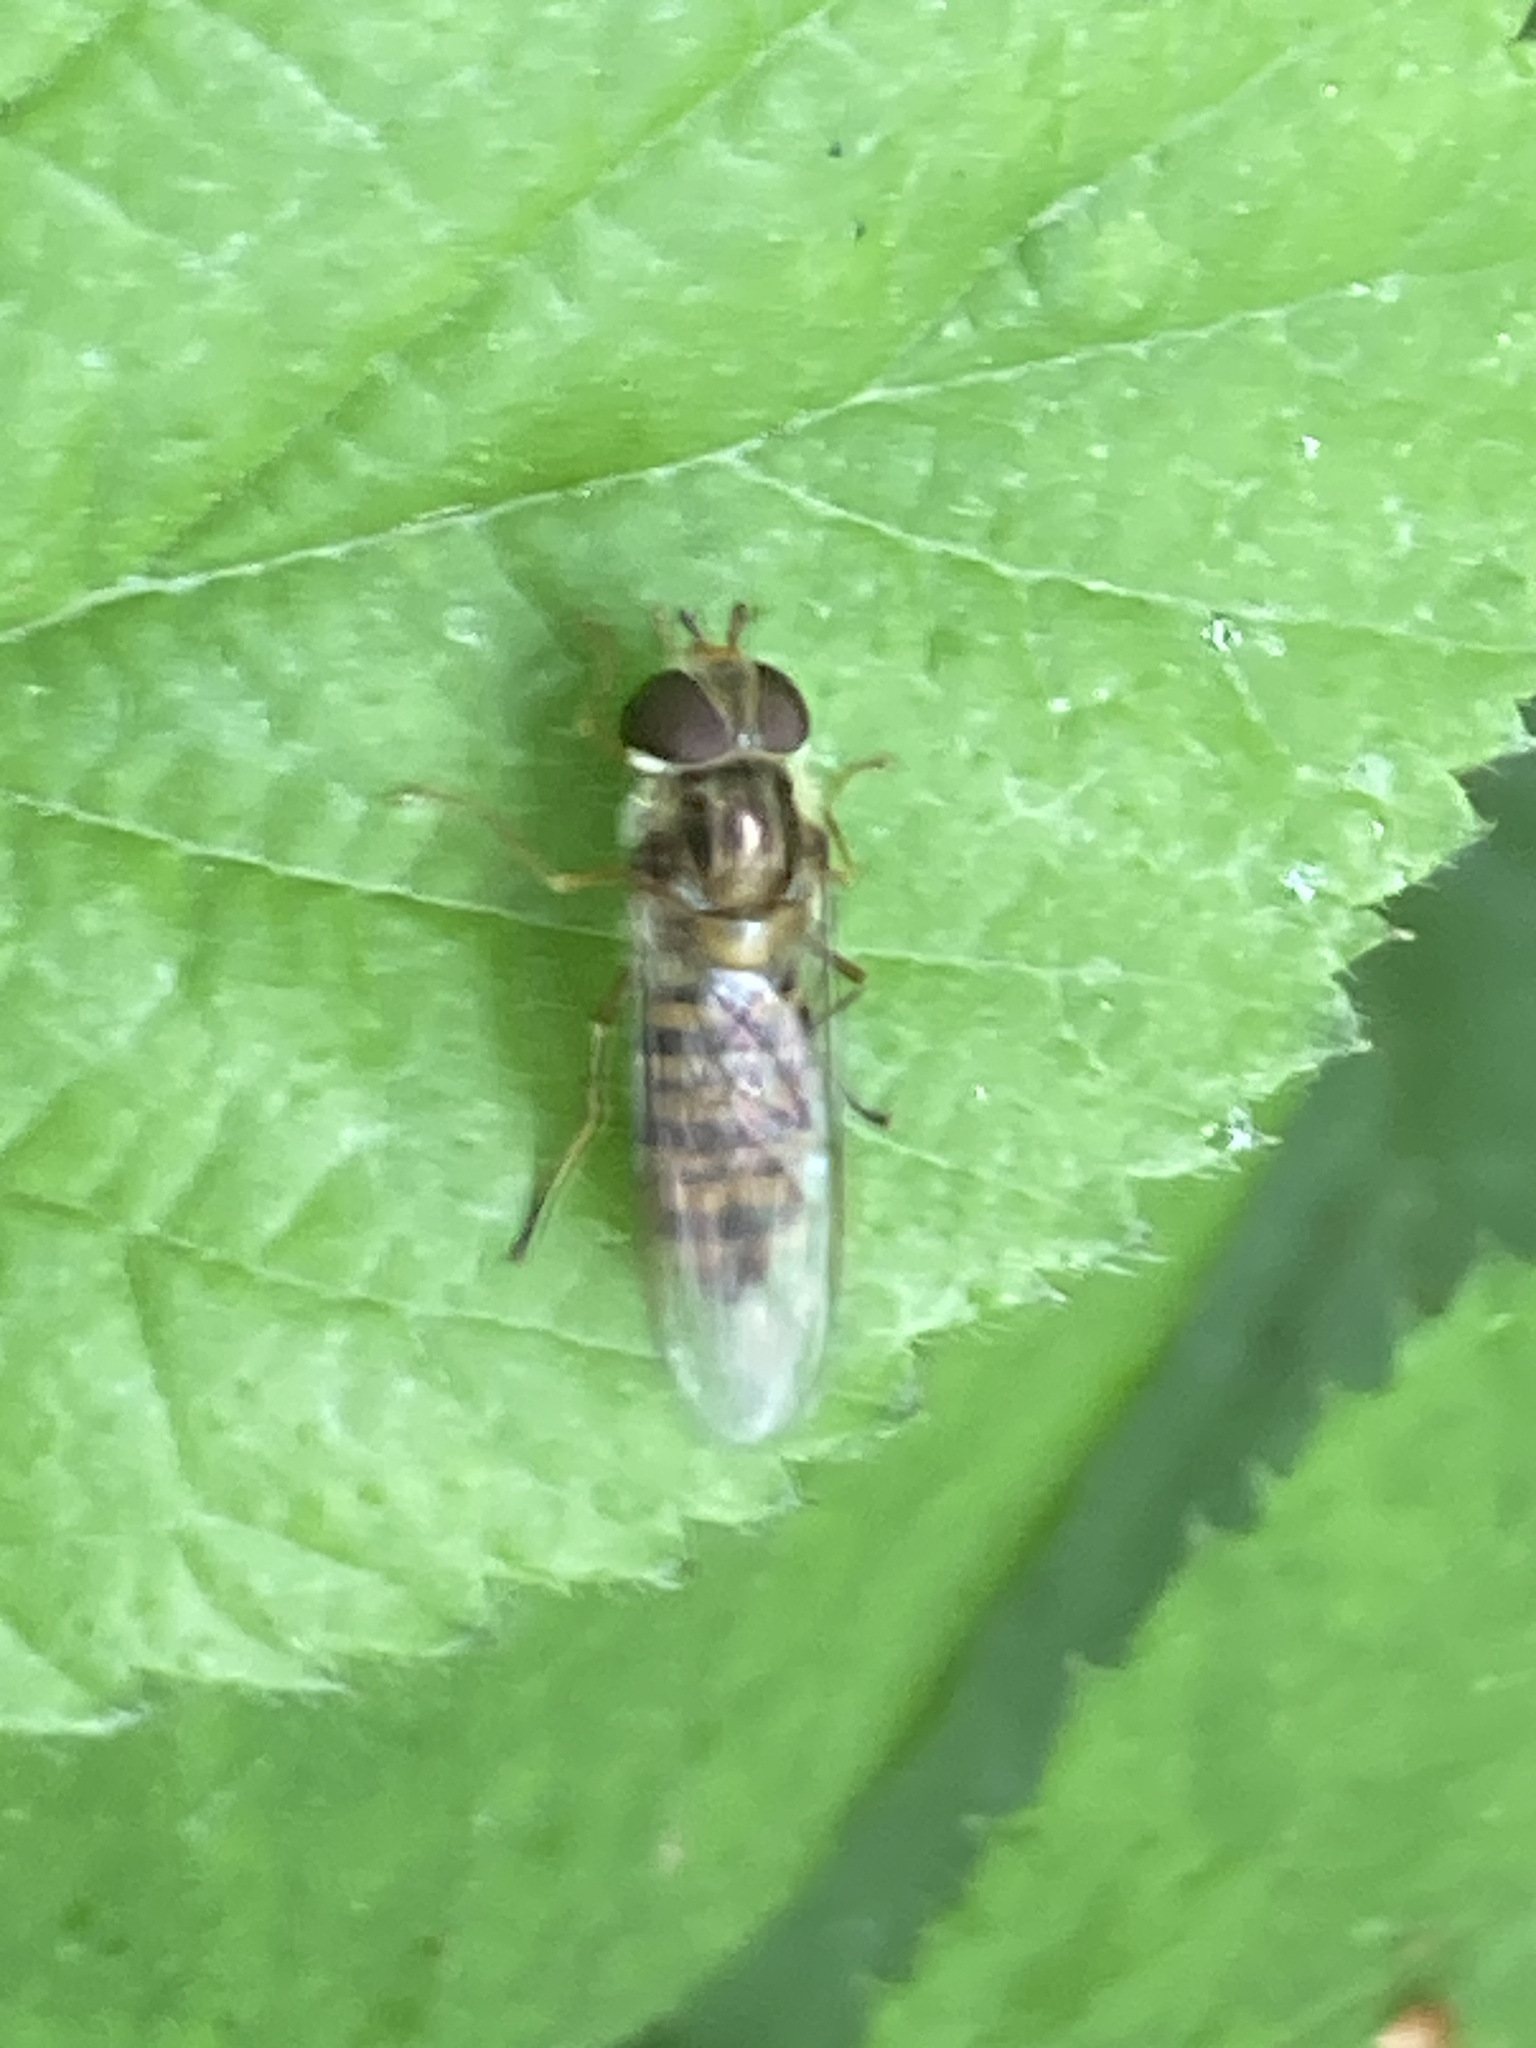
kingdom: Animalia
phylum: Arthropoda
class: Insecta
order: Diptera
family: Syrphidae
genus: Episyrphus
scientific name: Episyrphus balteatus
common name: Marmalade hoverfly
